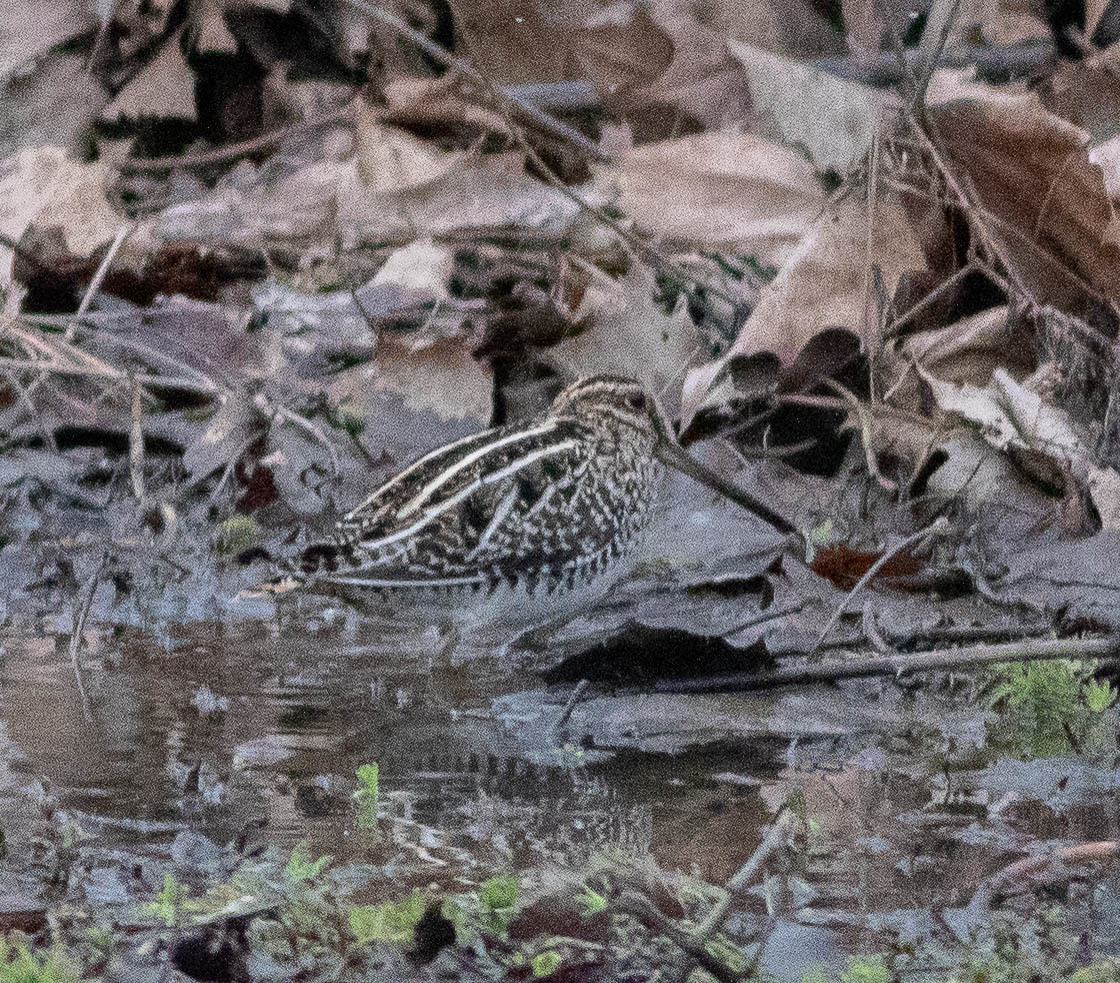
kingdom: Animalia
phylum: Chordata
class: Aves
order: Charadriiformes
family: Scolopacidae
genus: Gallinago
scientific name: Gallinago delicata
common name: Wilson's snipe
